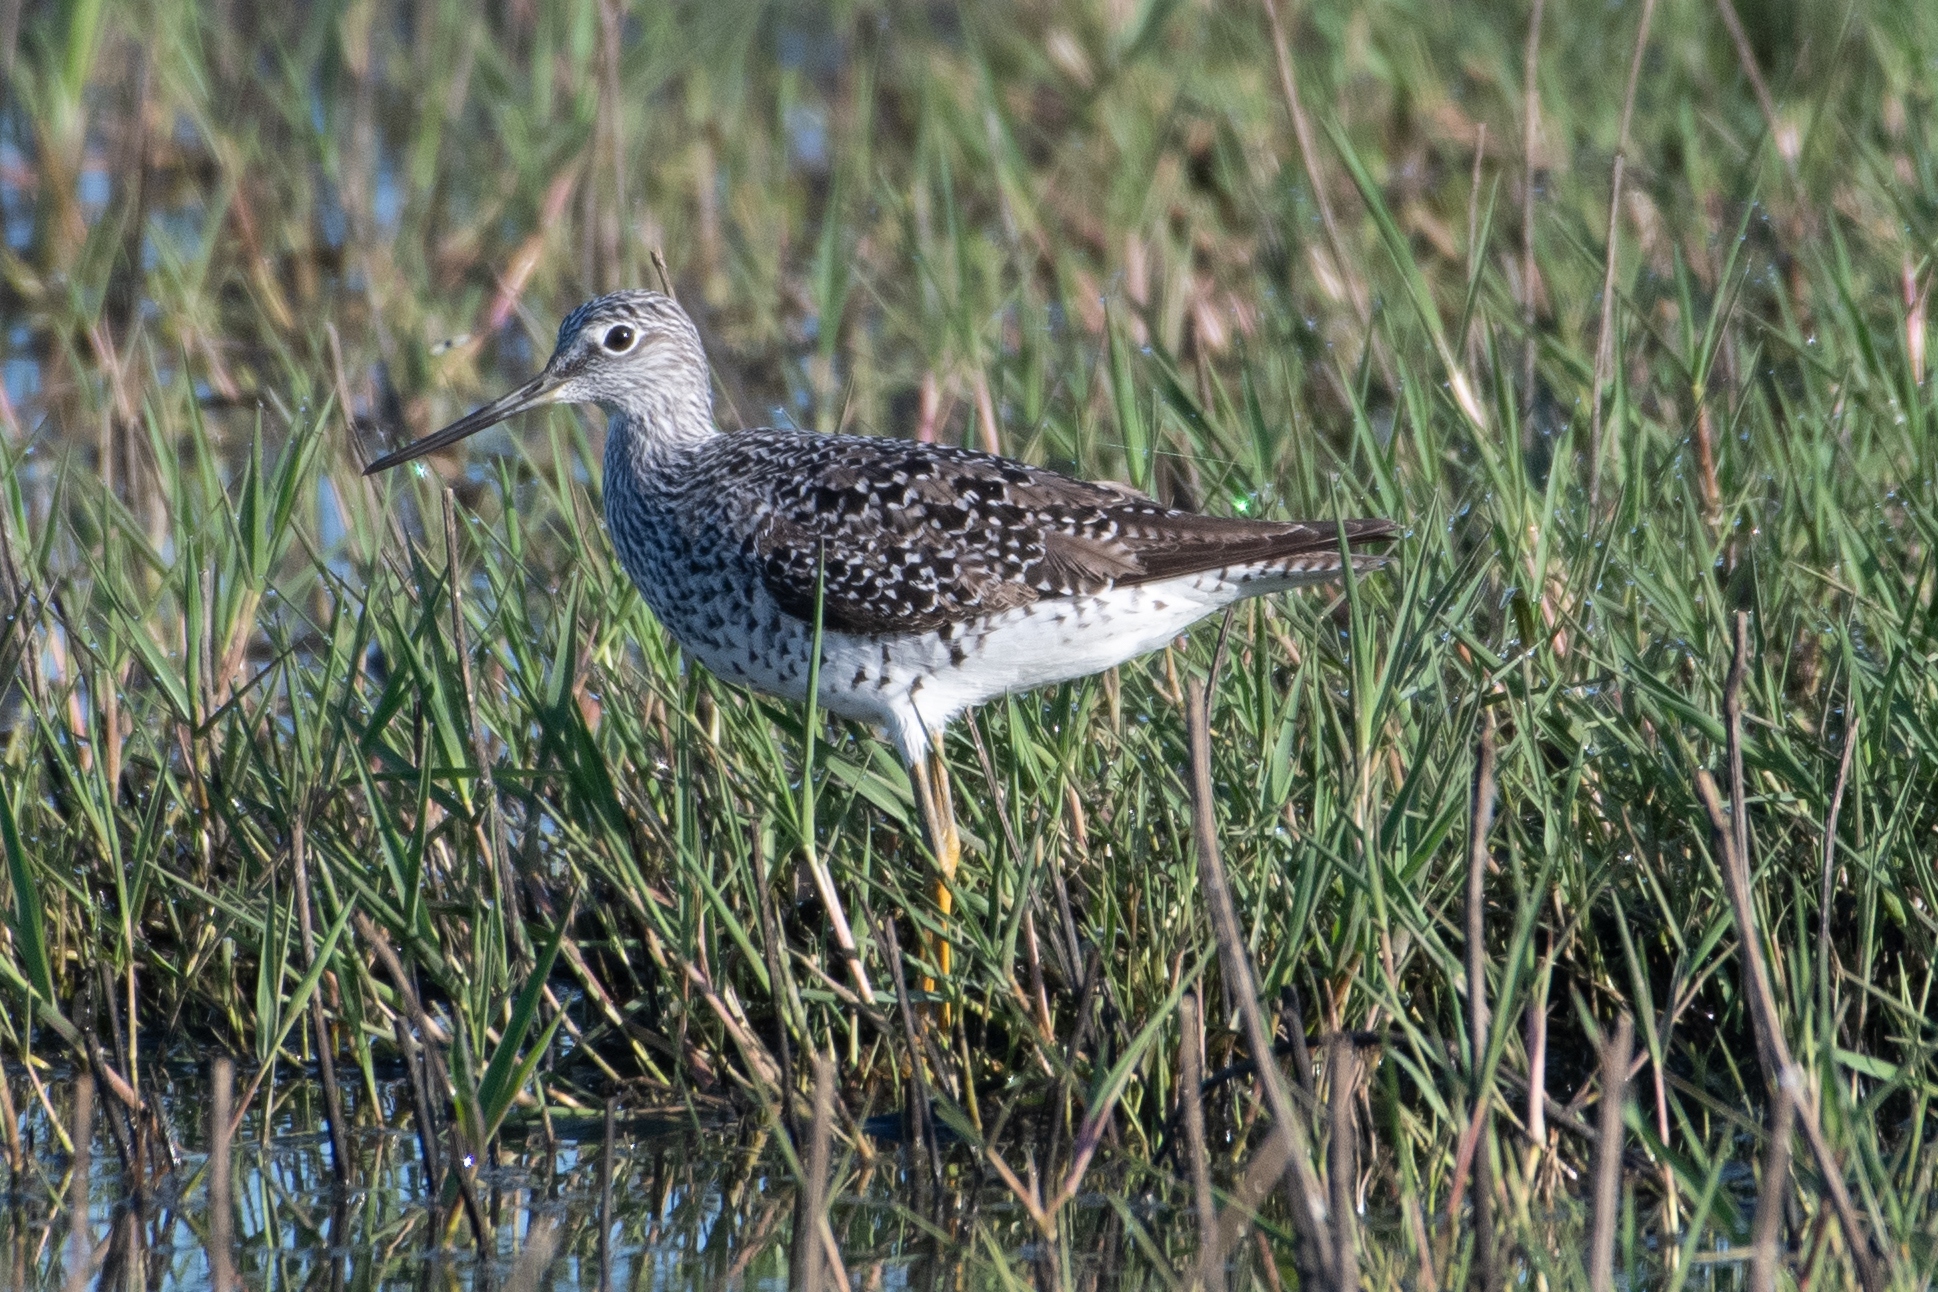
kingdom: Animalia
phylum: Chordata
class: Aves
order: Charadriiformes
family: Scolopacidae
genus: Tringa
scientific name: Tringa melanoleuca
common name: Greater yellowlegs
